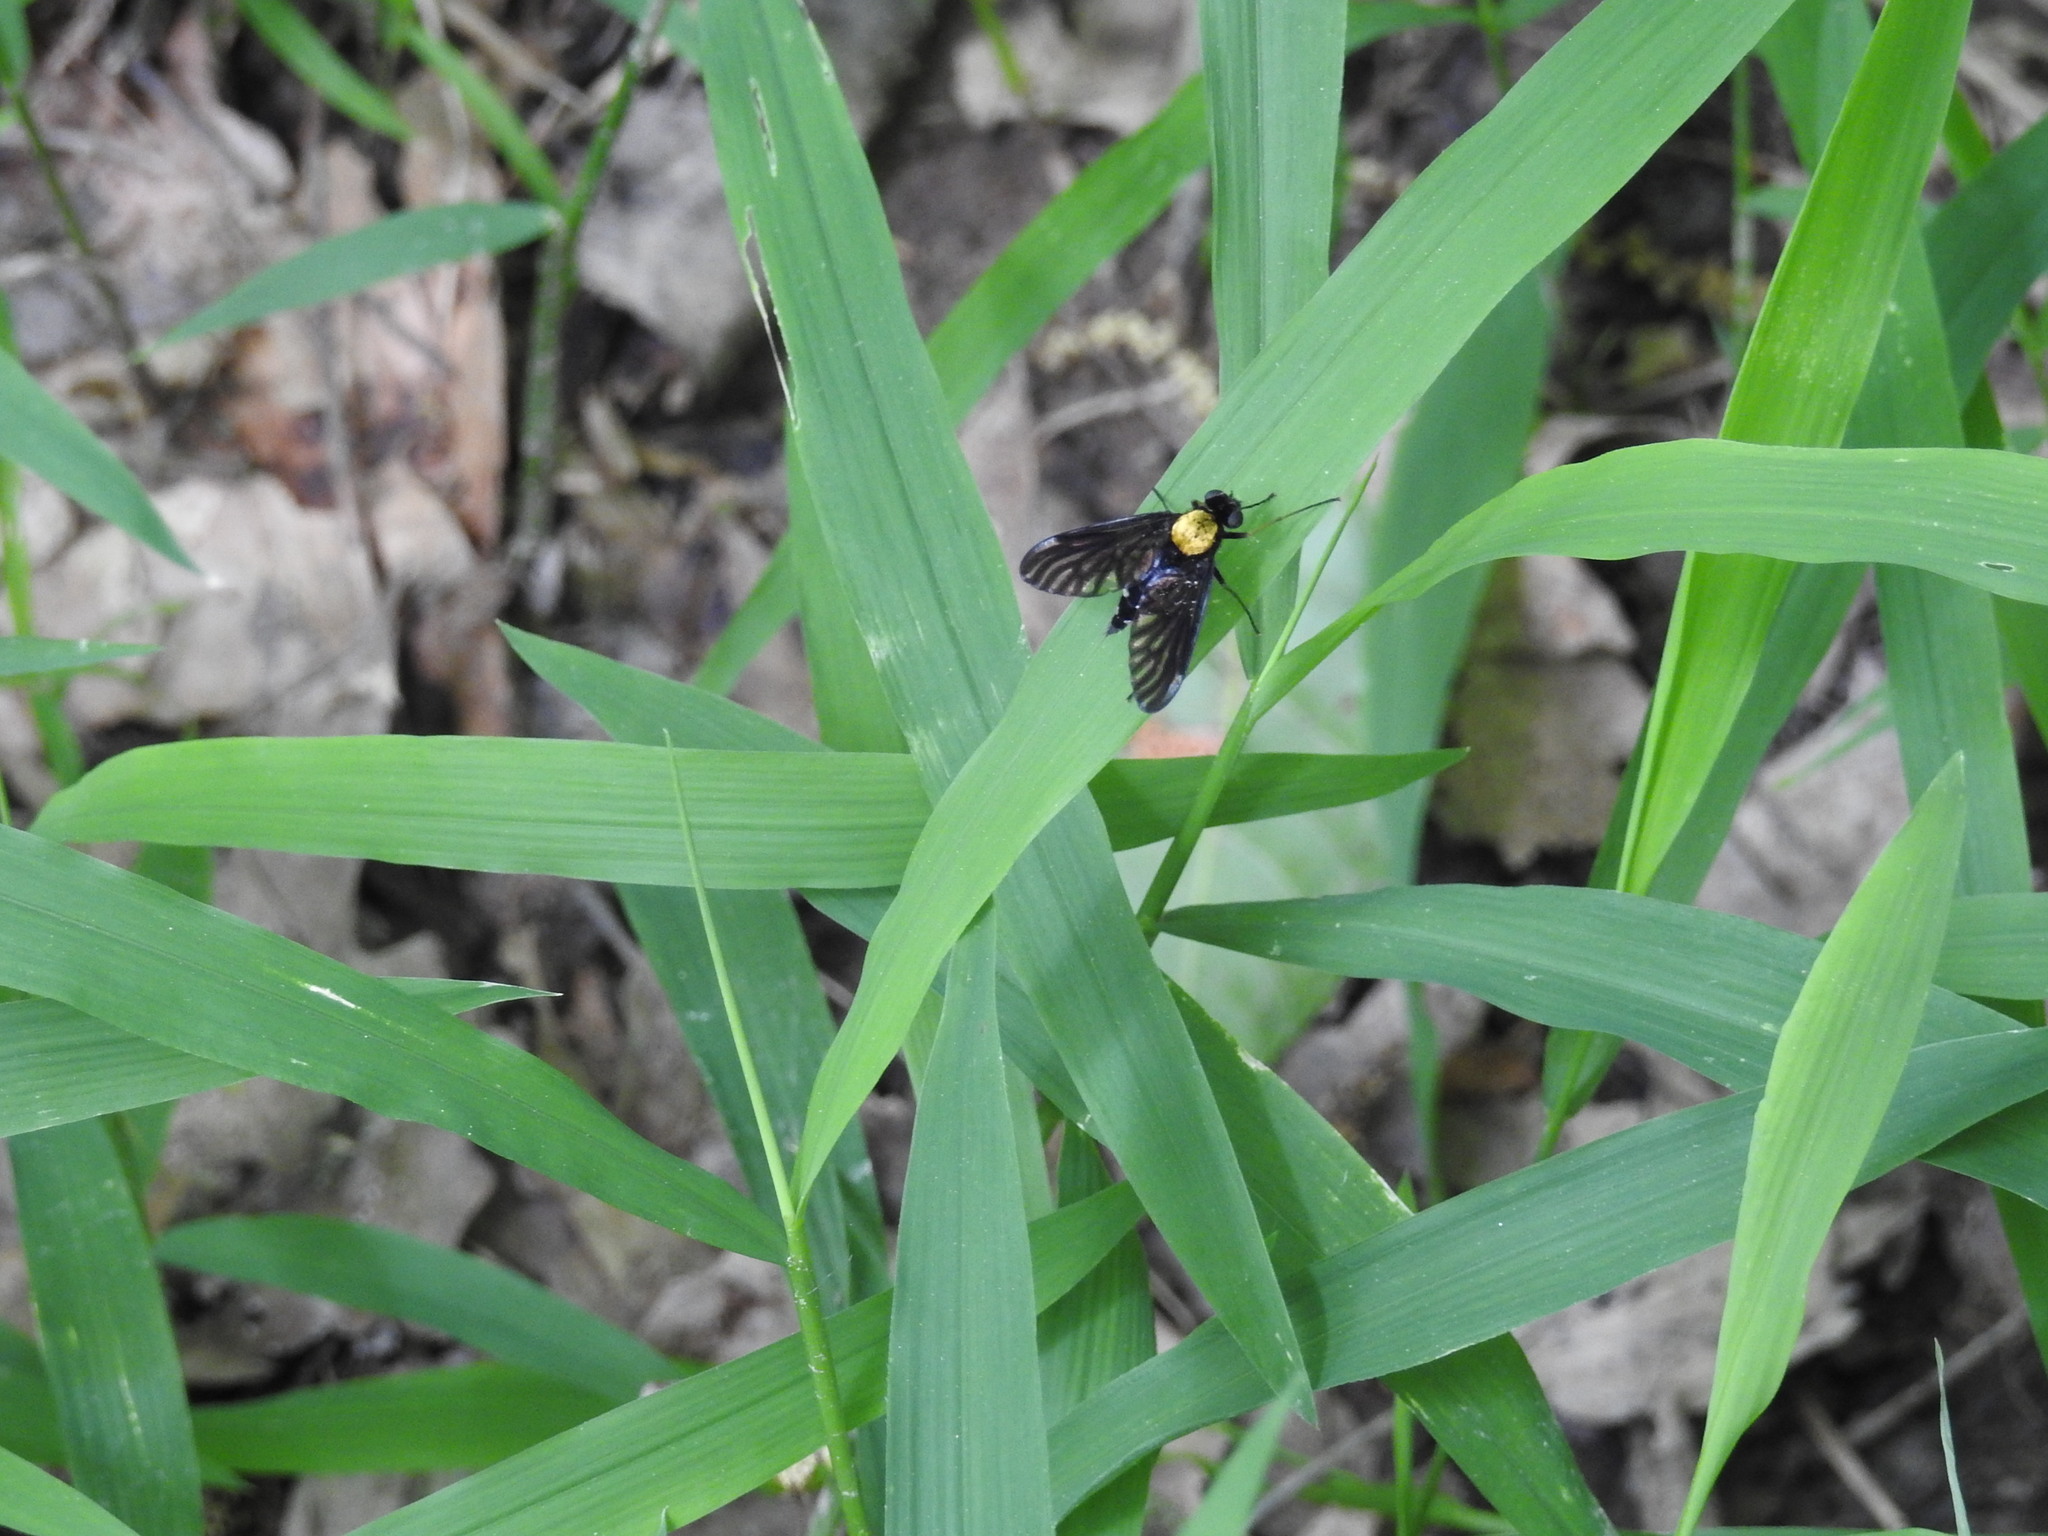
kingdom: Animalia
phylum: Arthropoda
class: Insecta
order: Diptera
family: Rhagionidae
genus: Chrysopilus
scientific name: Chrysopilus thoracicus
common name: Golden-backed snipe fly
